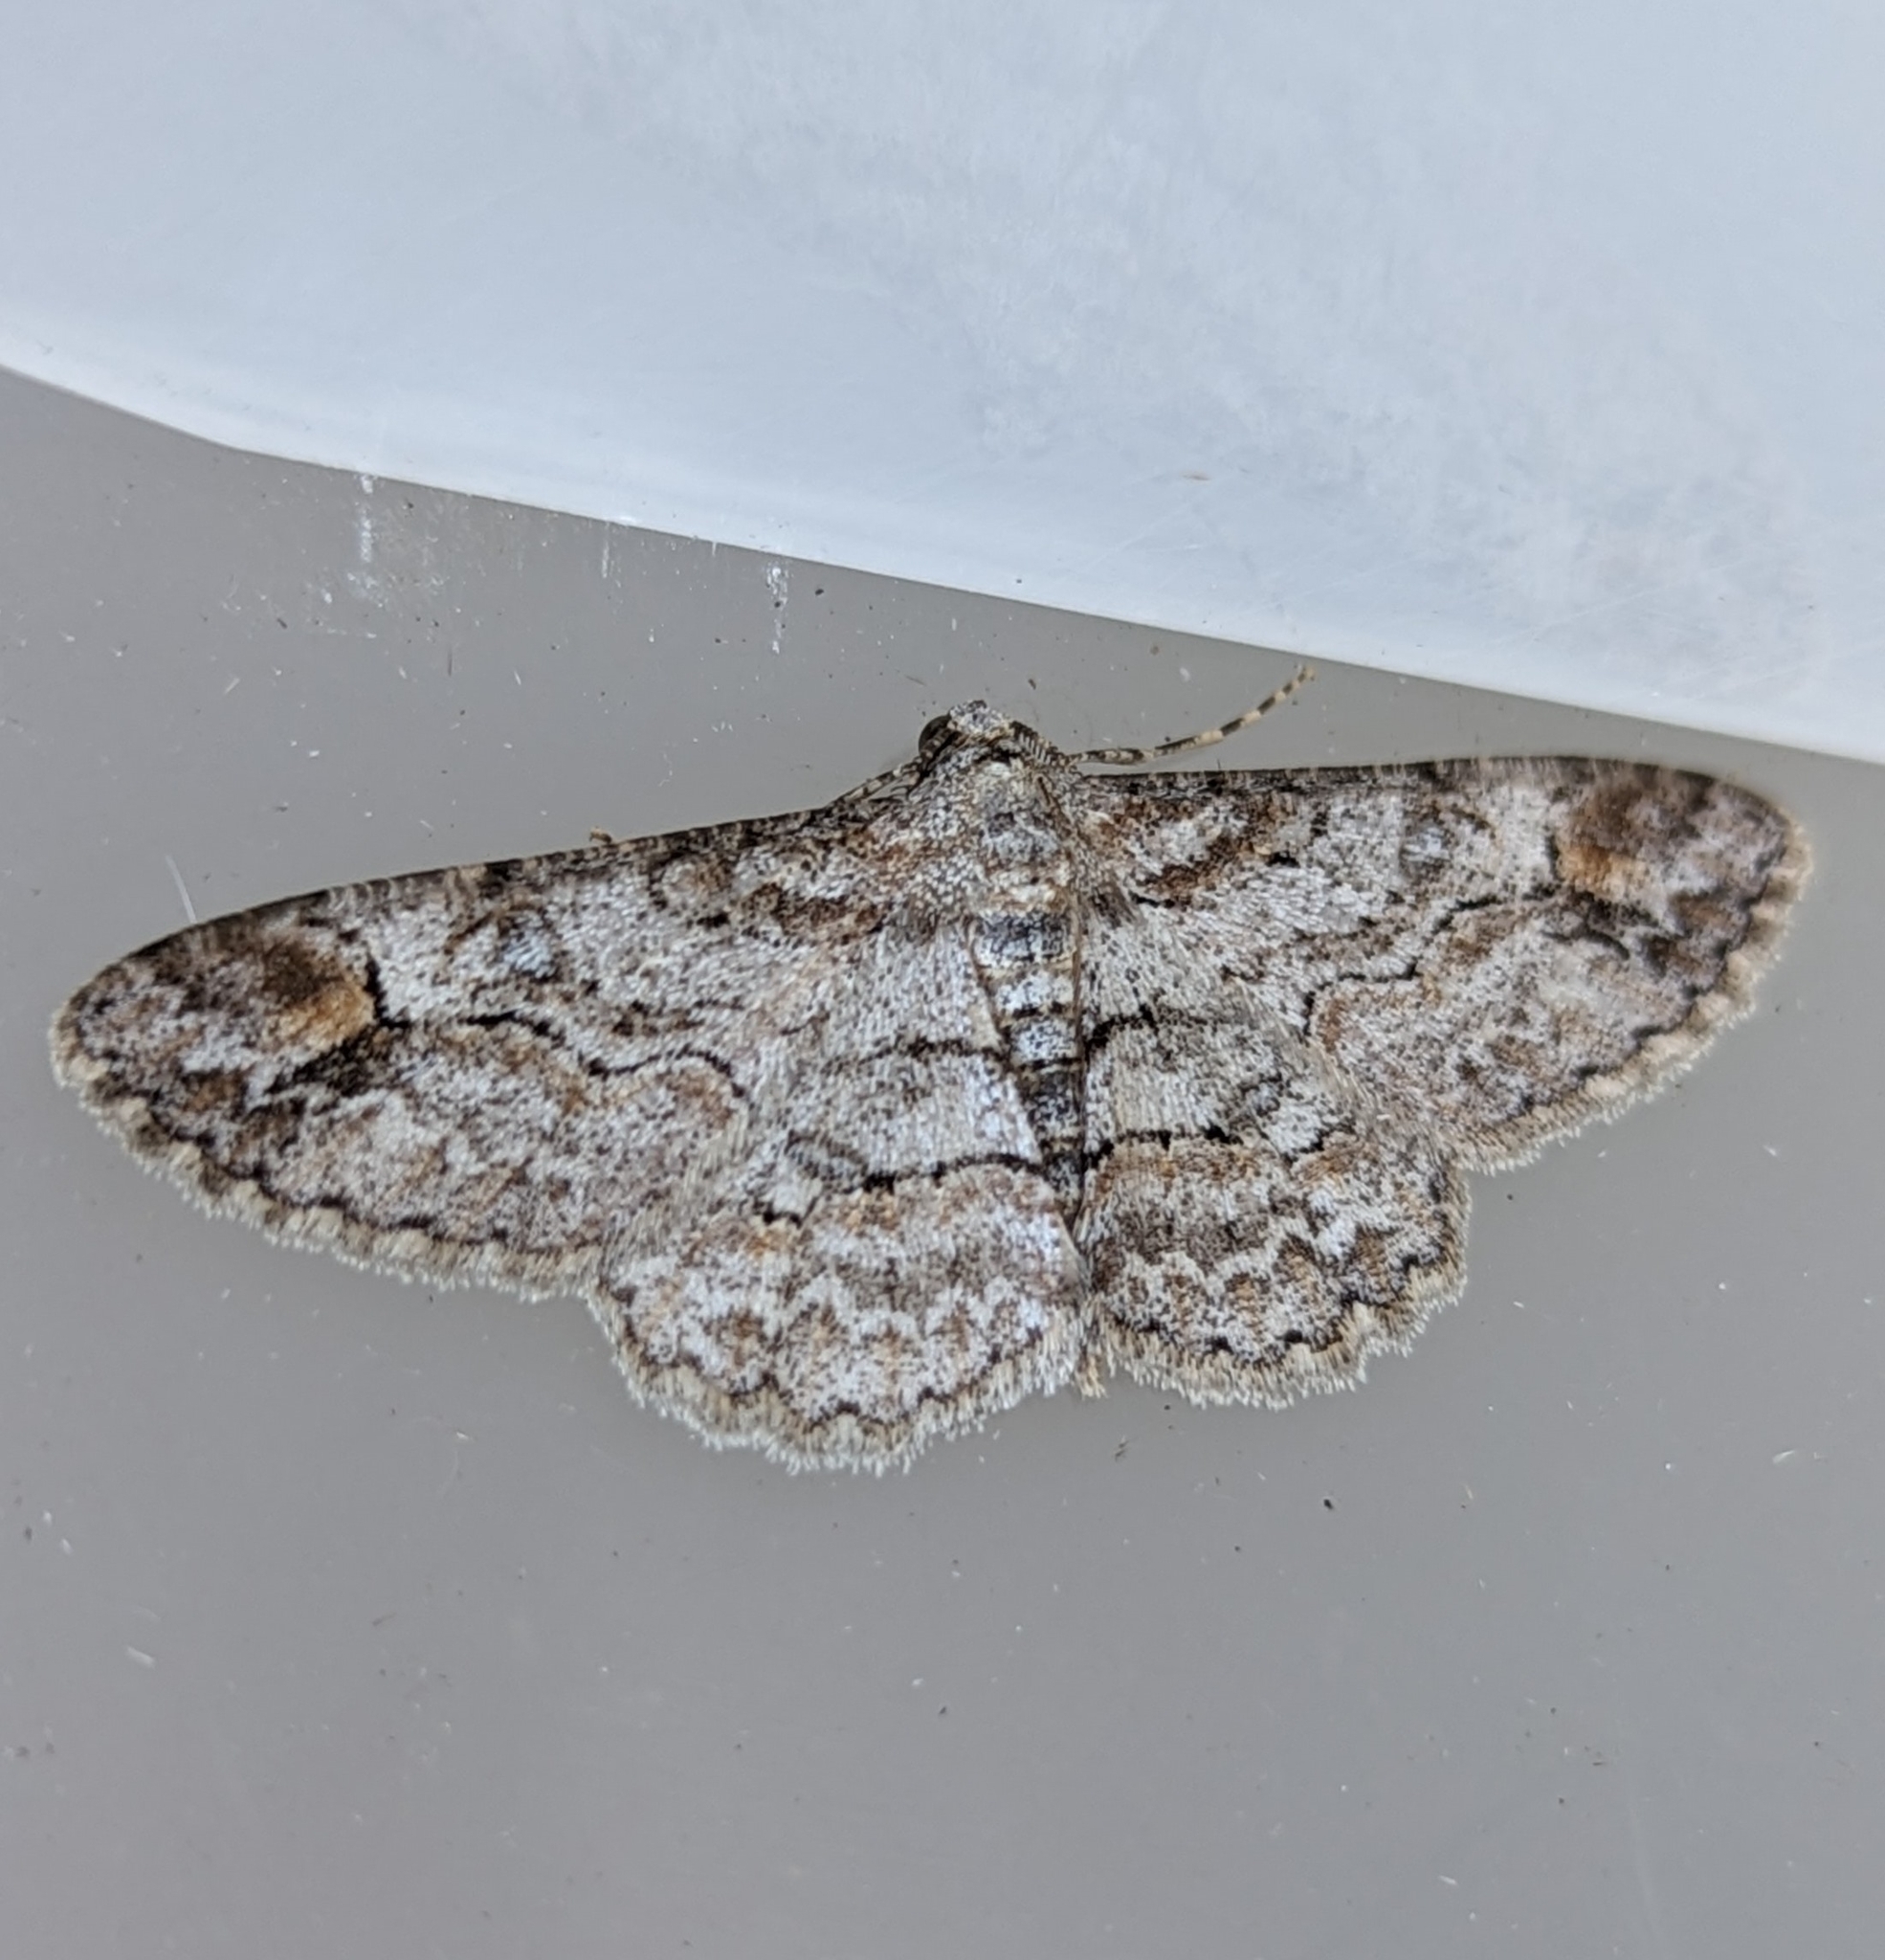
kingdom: Animalia
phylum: Arthropoda
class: Insecta
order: Lepidoptera
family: Geometridae
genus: Iridopsis
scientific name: Iridopsis emasculatum
